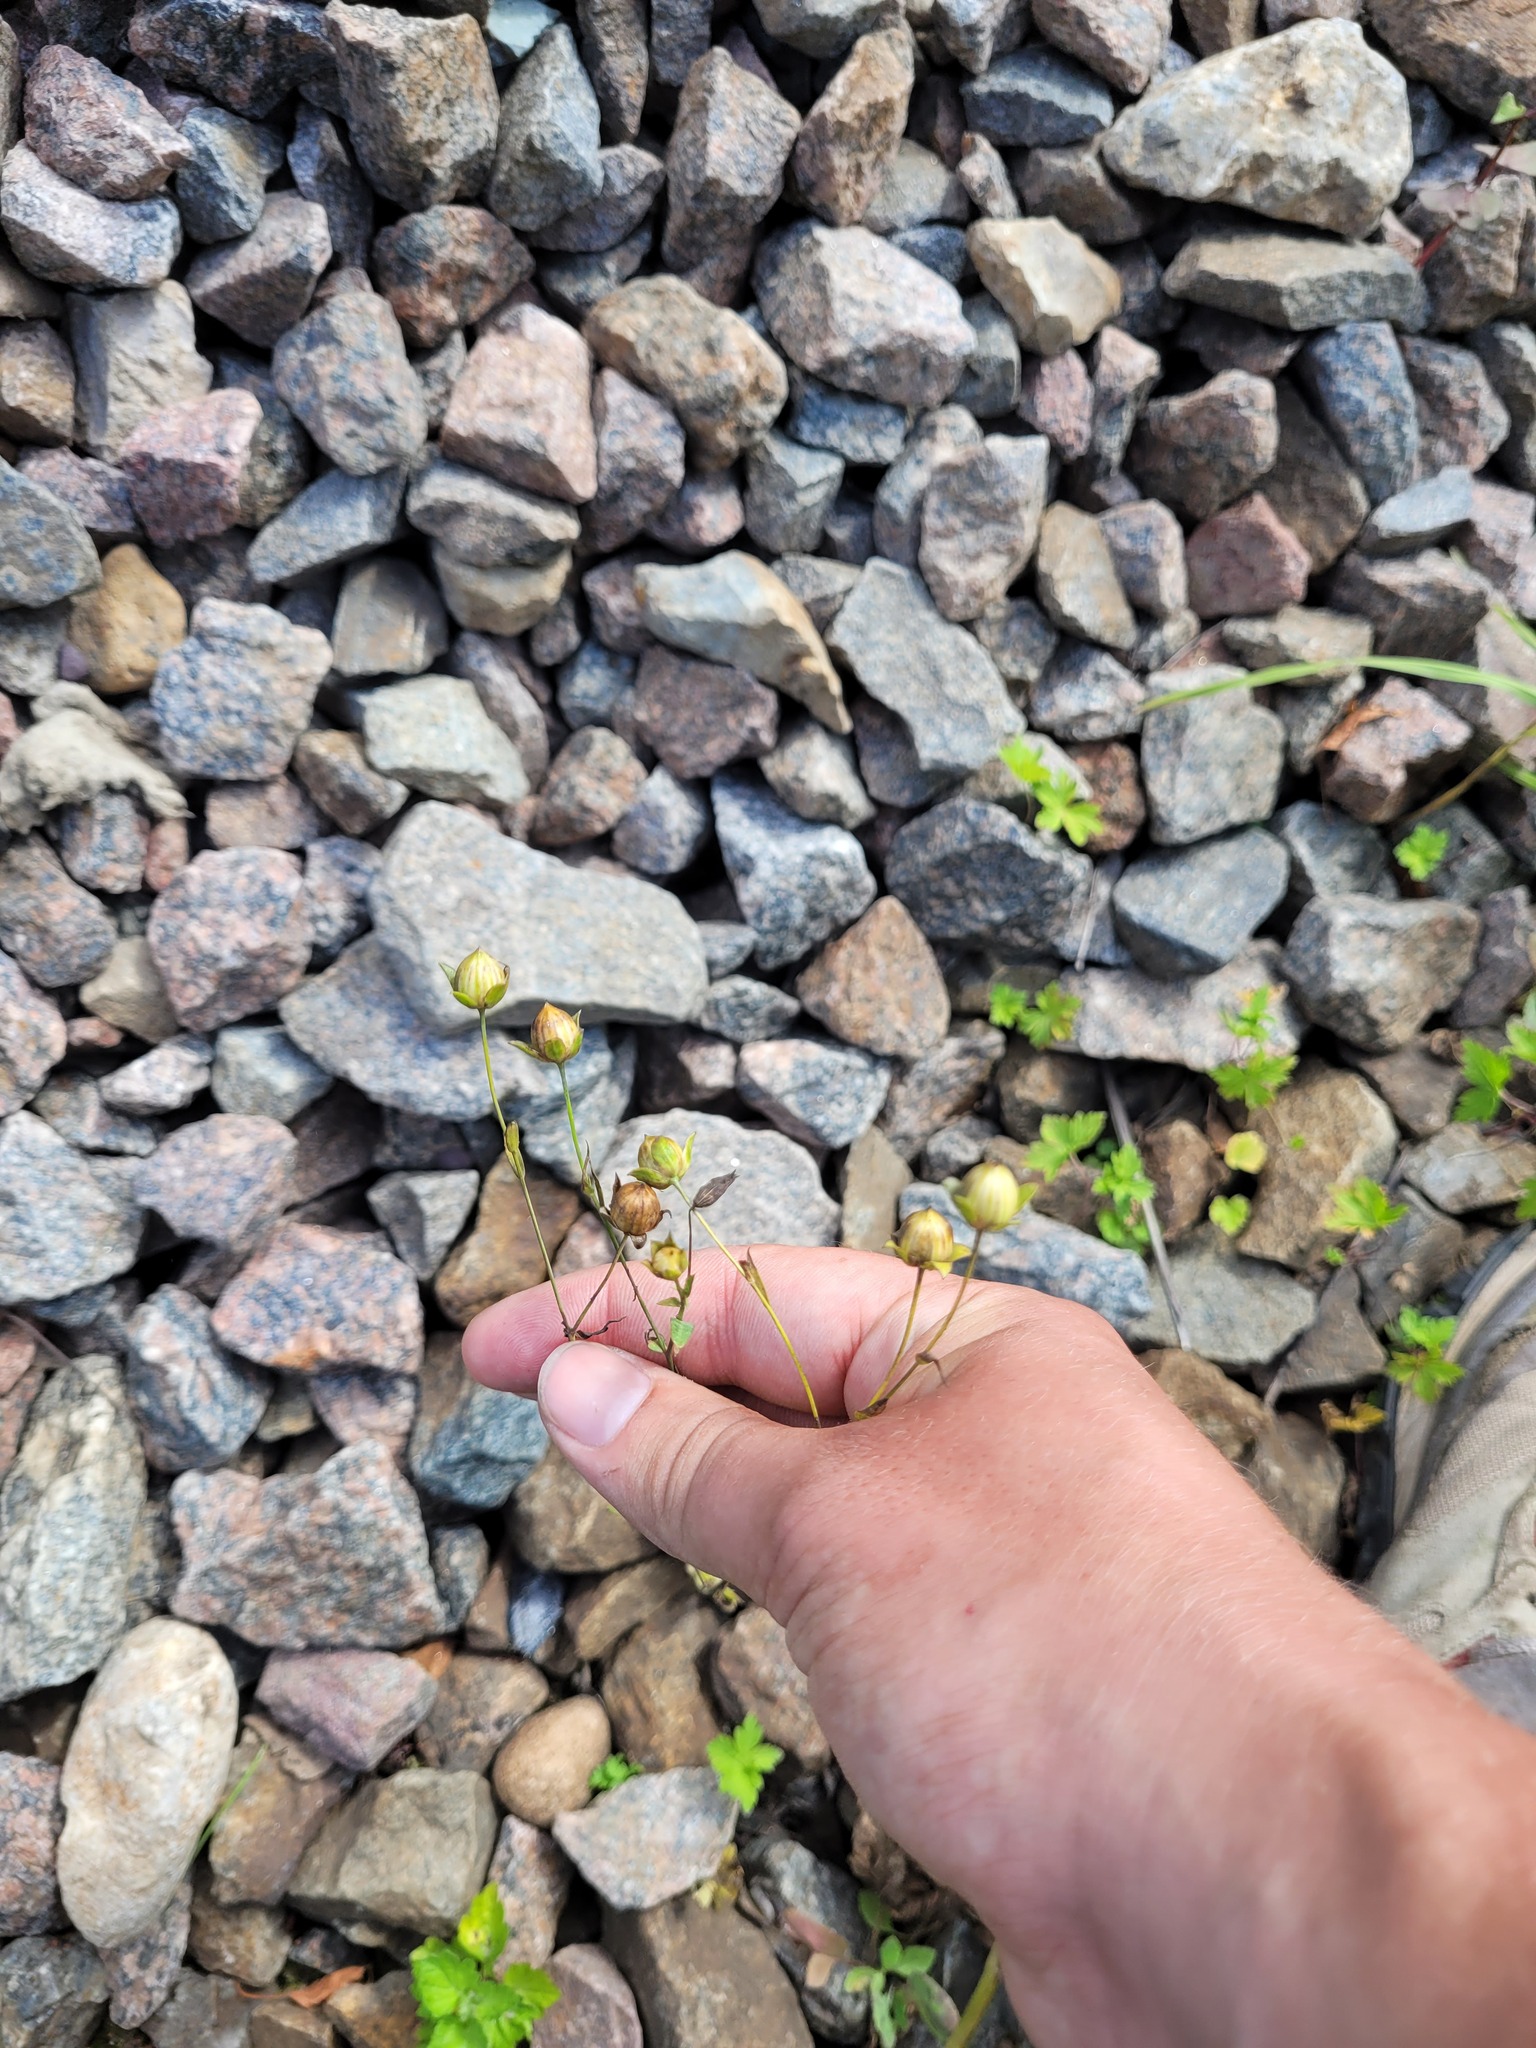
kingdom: Plantae
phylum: Tracheophyta
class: Magnoliopsida
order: Malpighiales
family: Linaceae
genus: Linum
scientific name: Linum usitatissimum
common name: Flax
